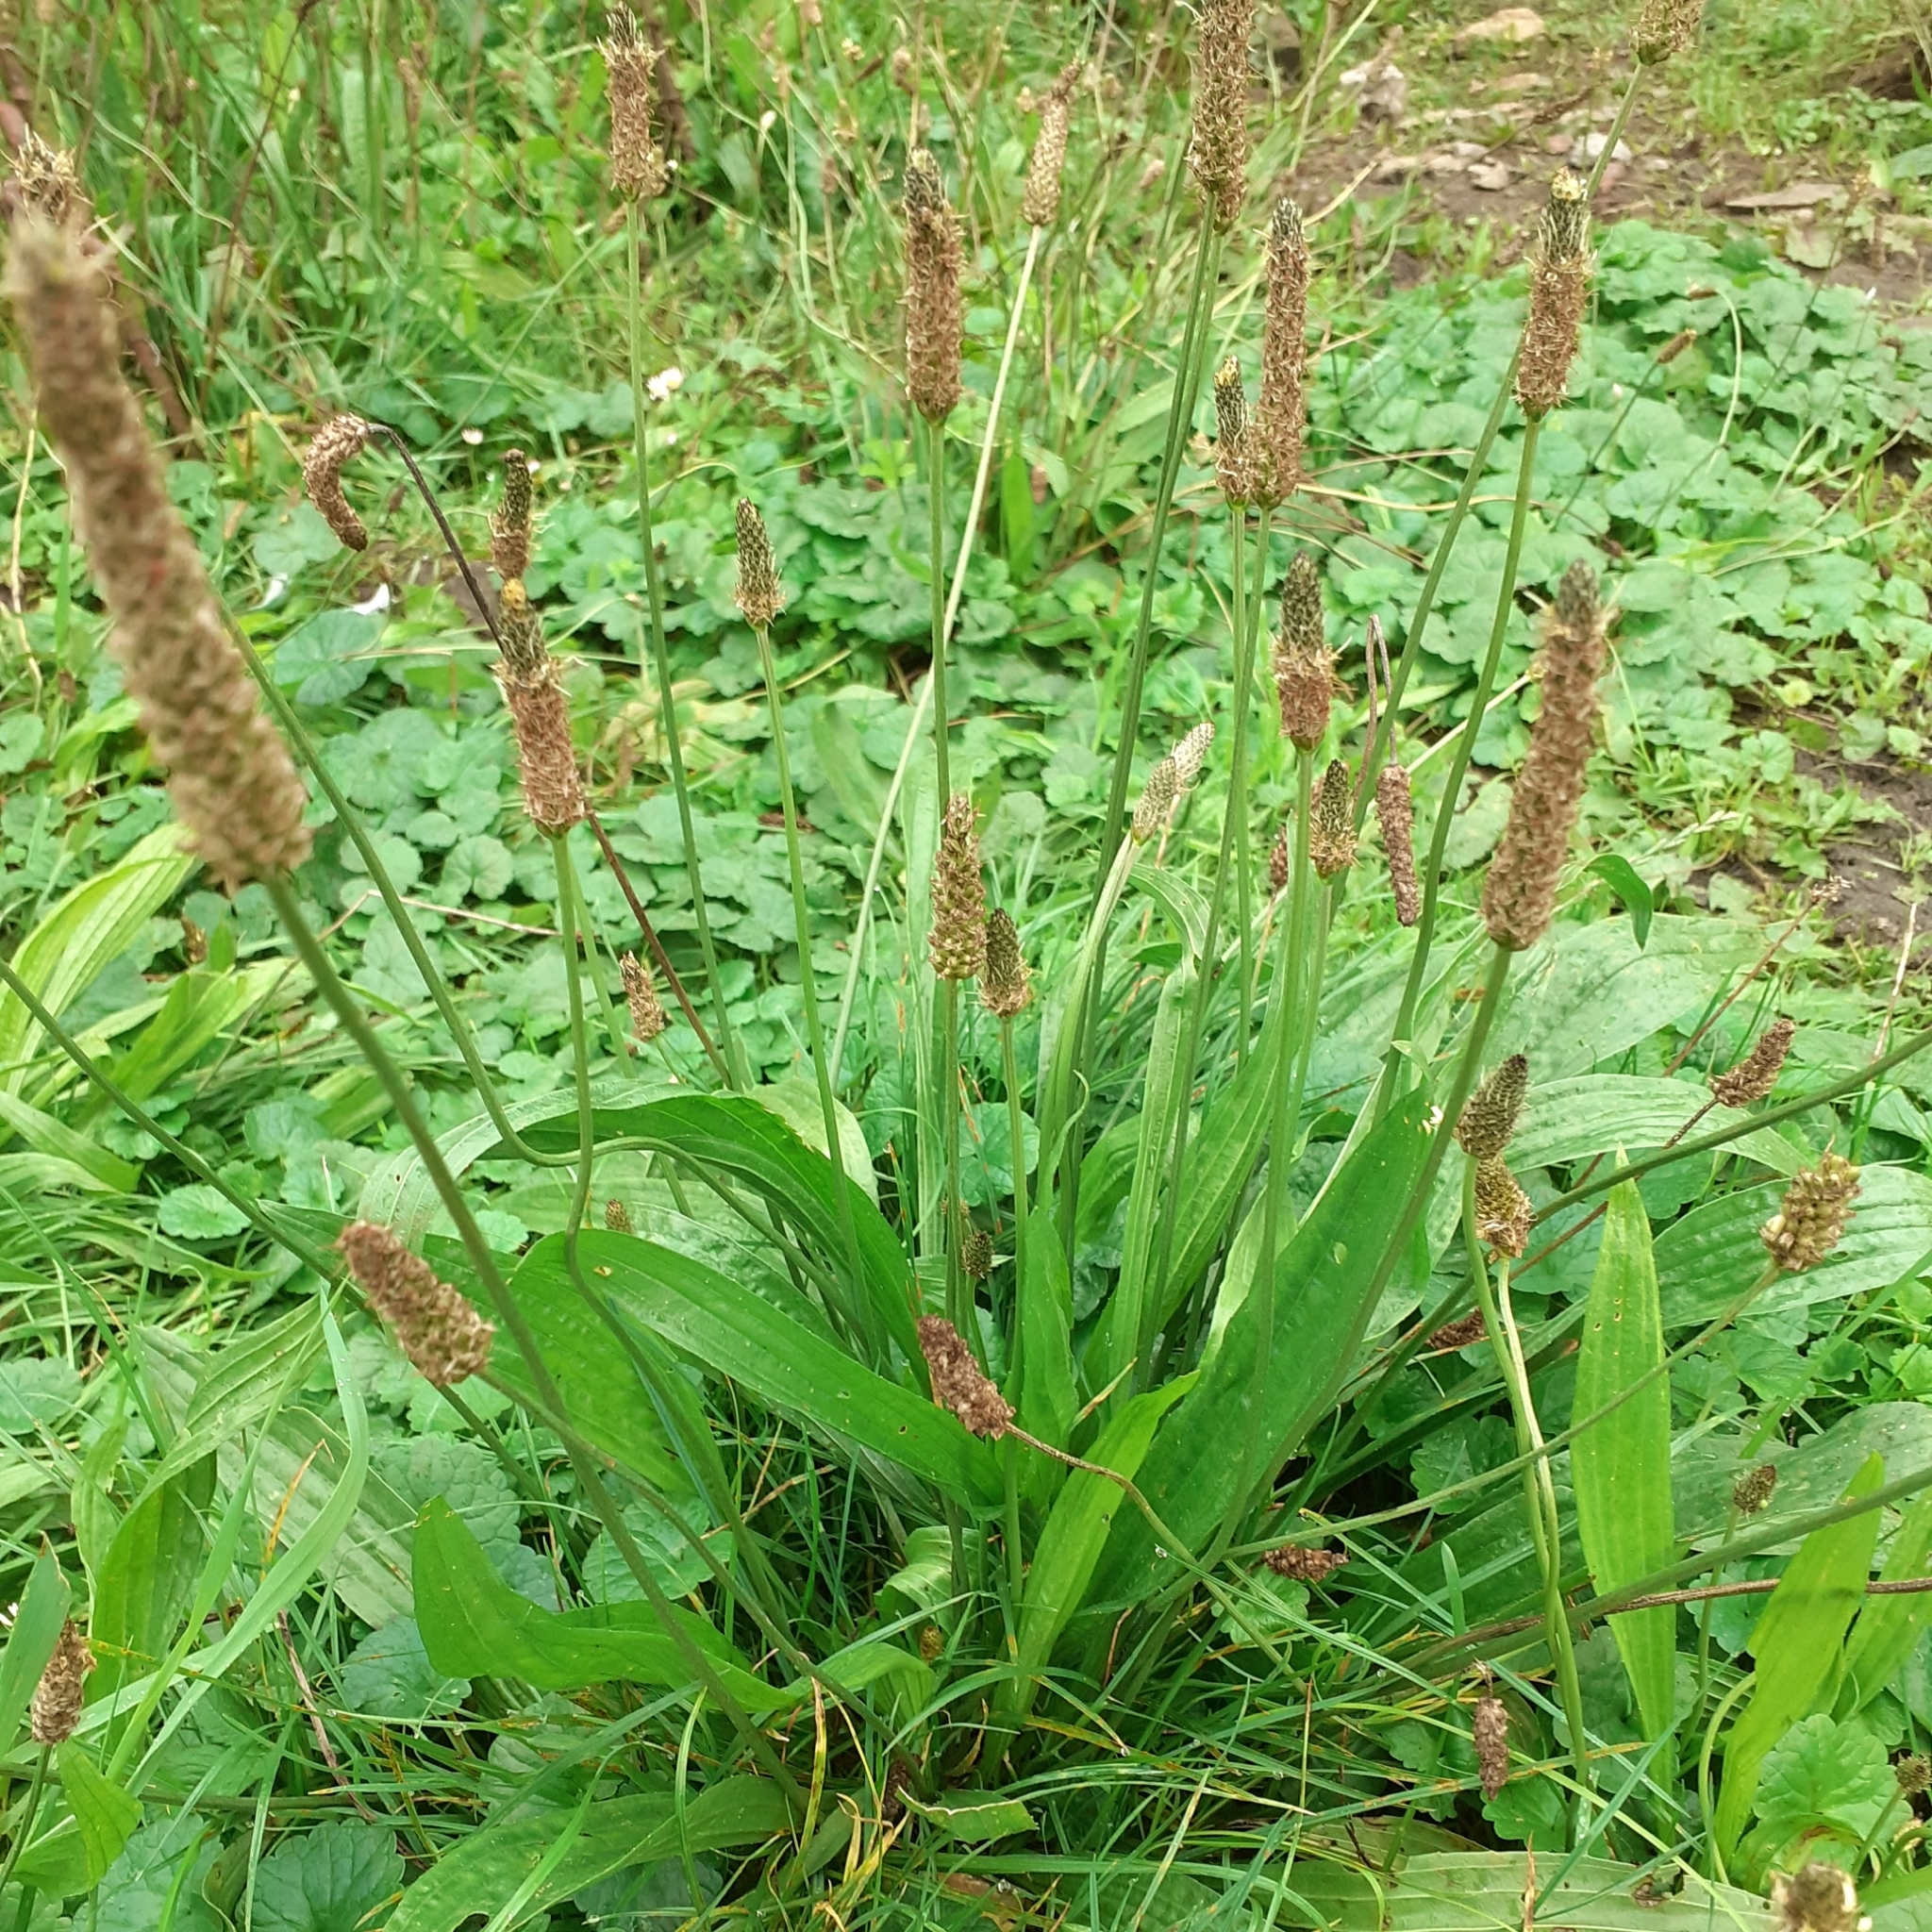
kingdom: Plantae
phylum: Tracheophyta
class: Magnoliopsida
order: Lamiales
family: Plantaginaceae
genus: Plantago
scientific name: Plantago lanceolata
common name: Ribwort plantain
